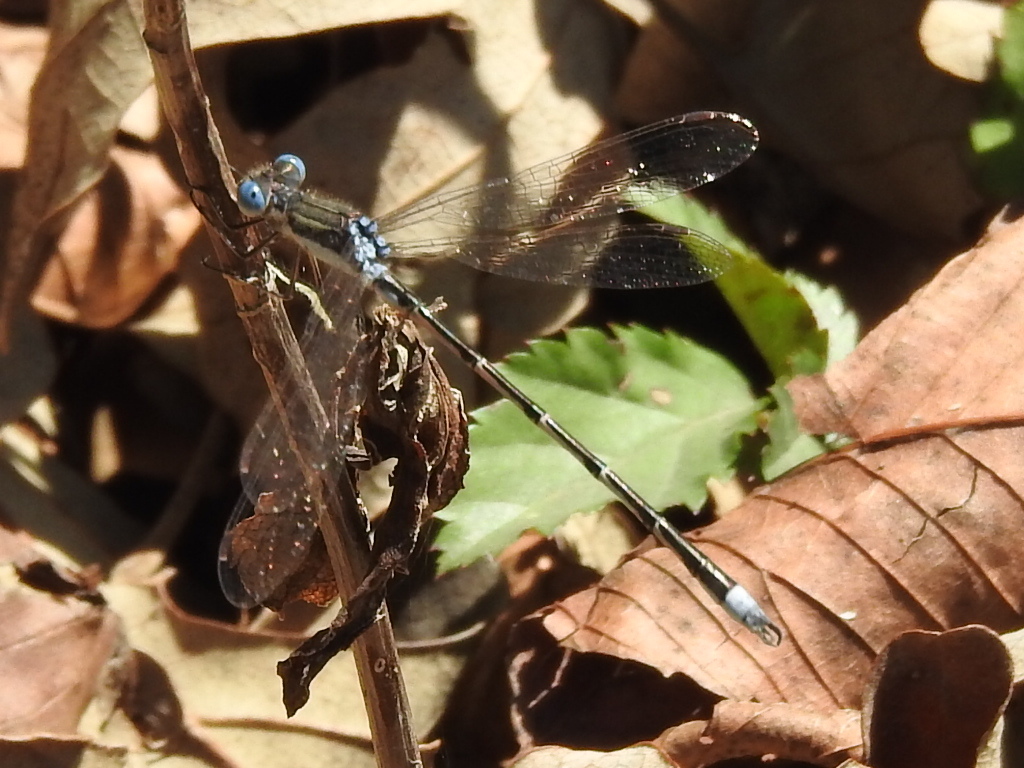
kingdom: Animalia
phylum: Arthropoda
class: Insecta
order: Odonata
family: Lestidae
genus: Lestes
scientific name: Lestes australis
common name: Southern spreadwing
